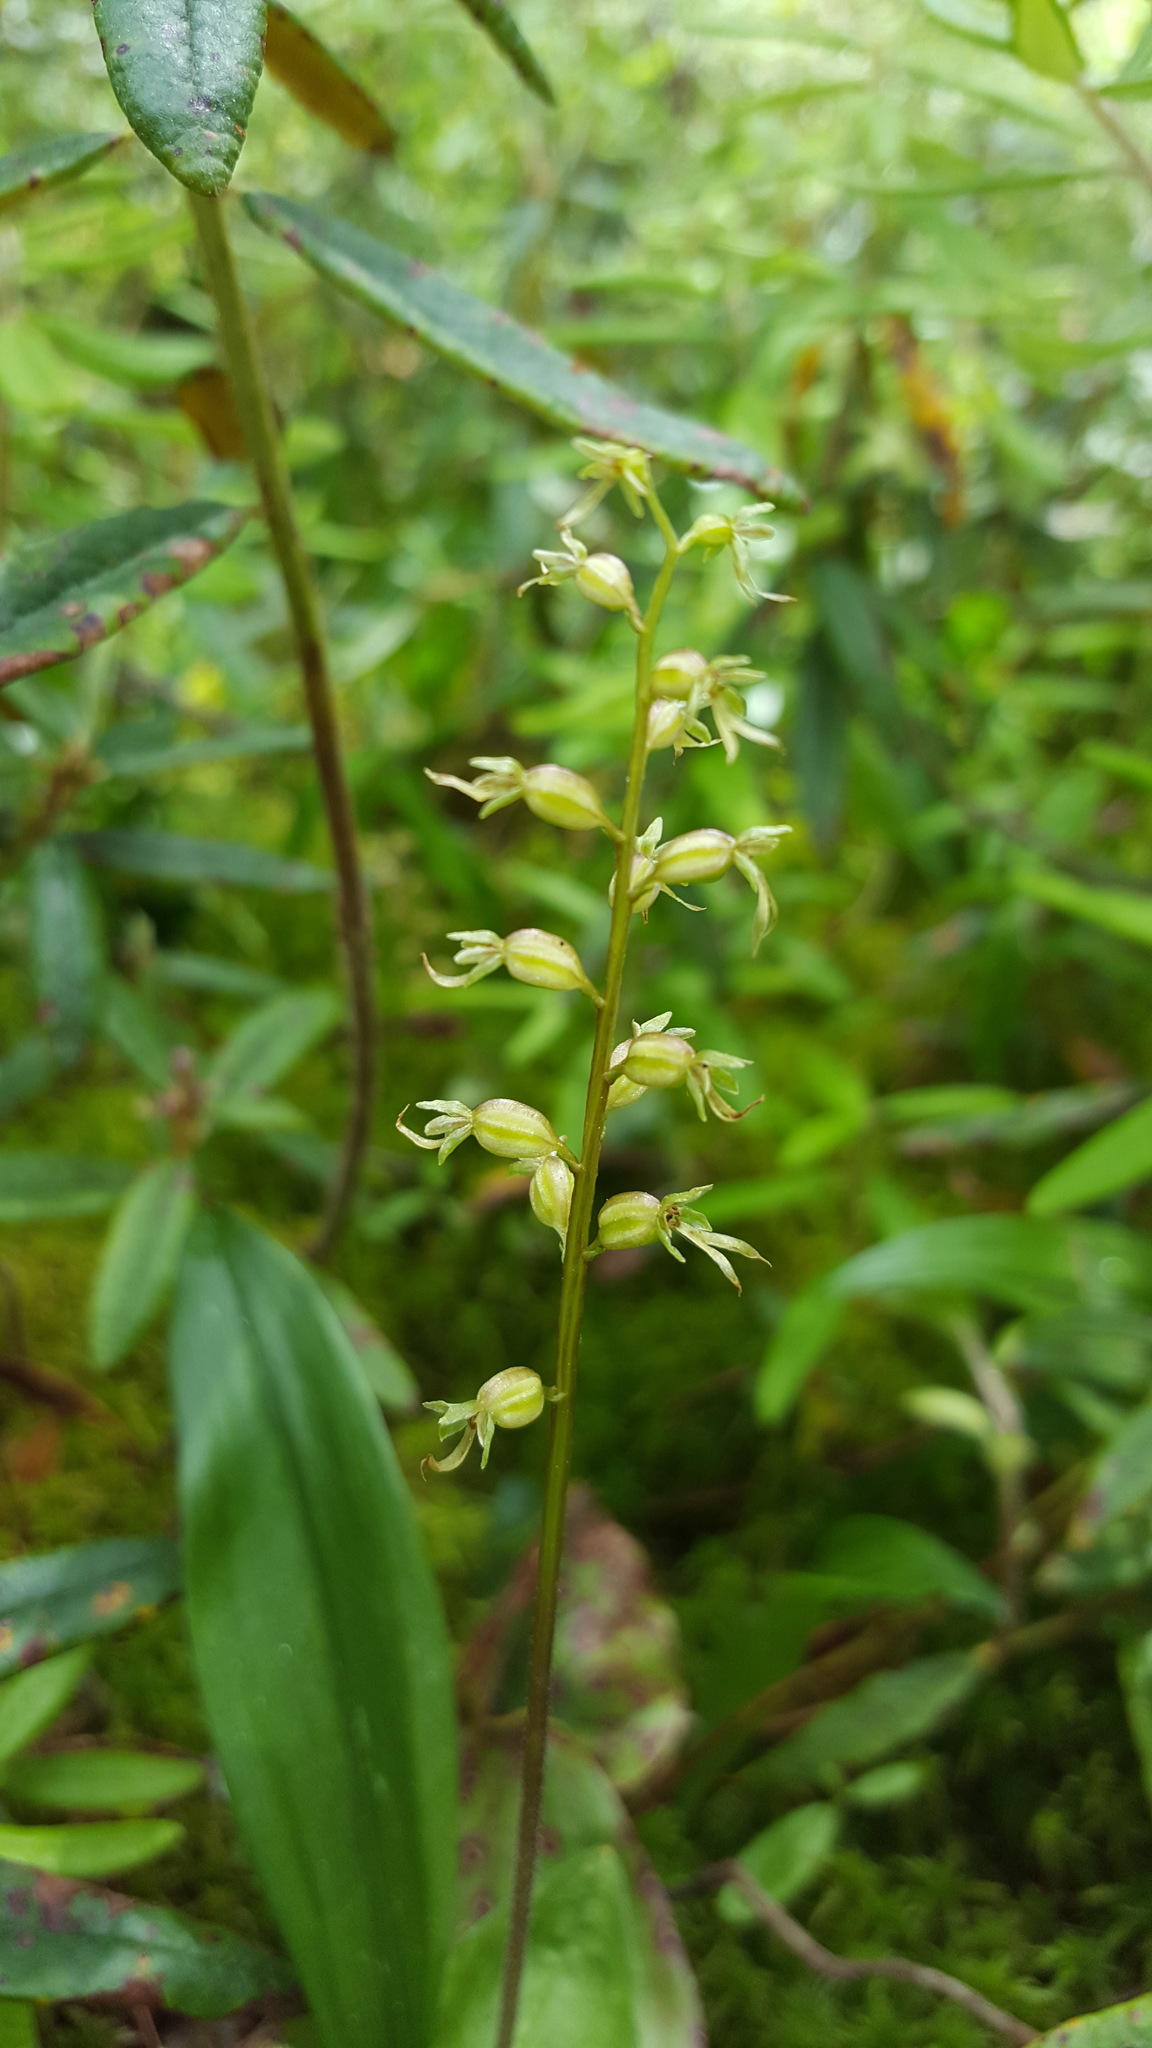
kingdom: Plantae
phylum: Tracheophyta
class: Liliopsida
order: Asparagales
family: Orchidaceae
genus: Neottia
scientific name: Neottia cordata
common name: Lesser twayblade
